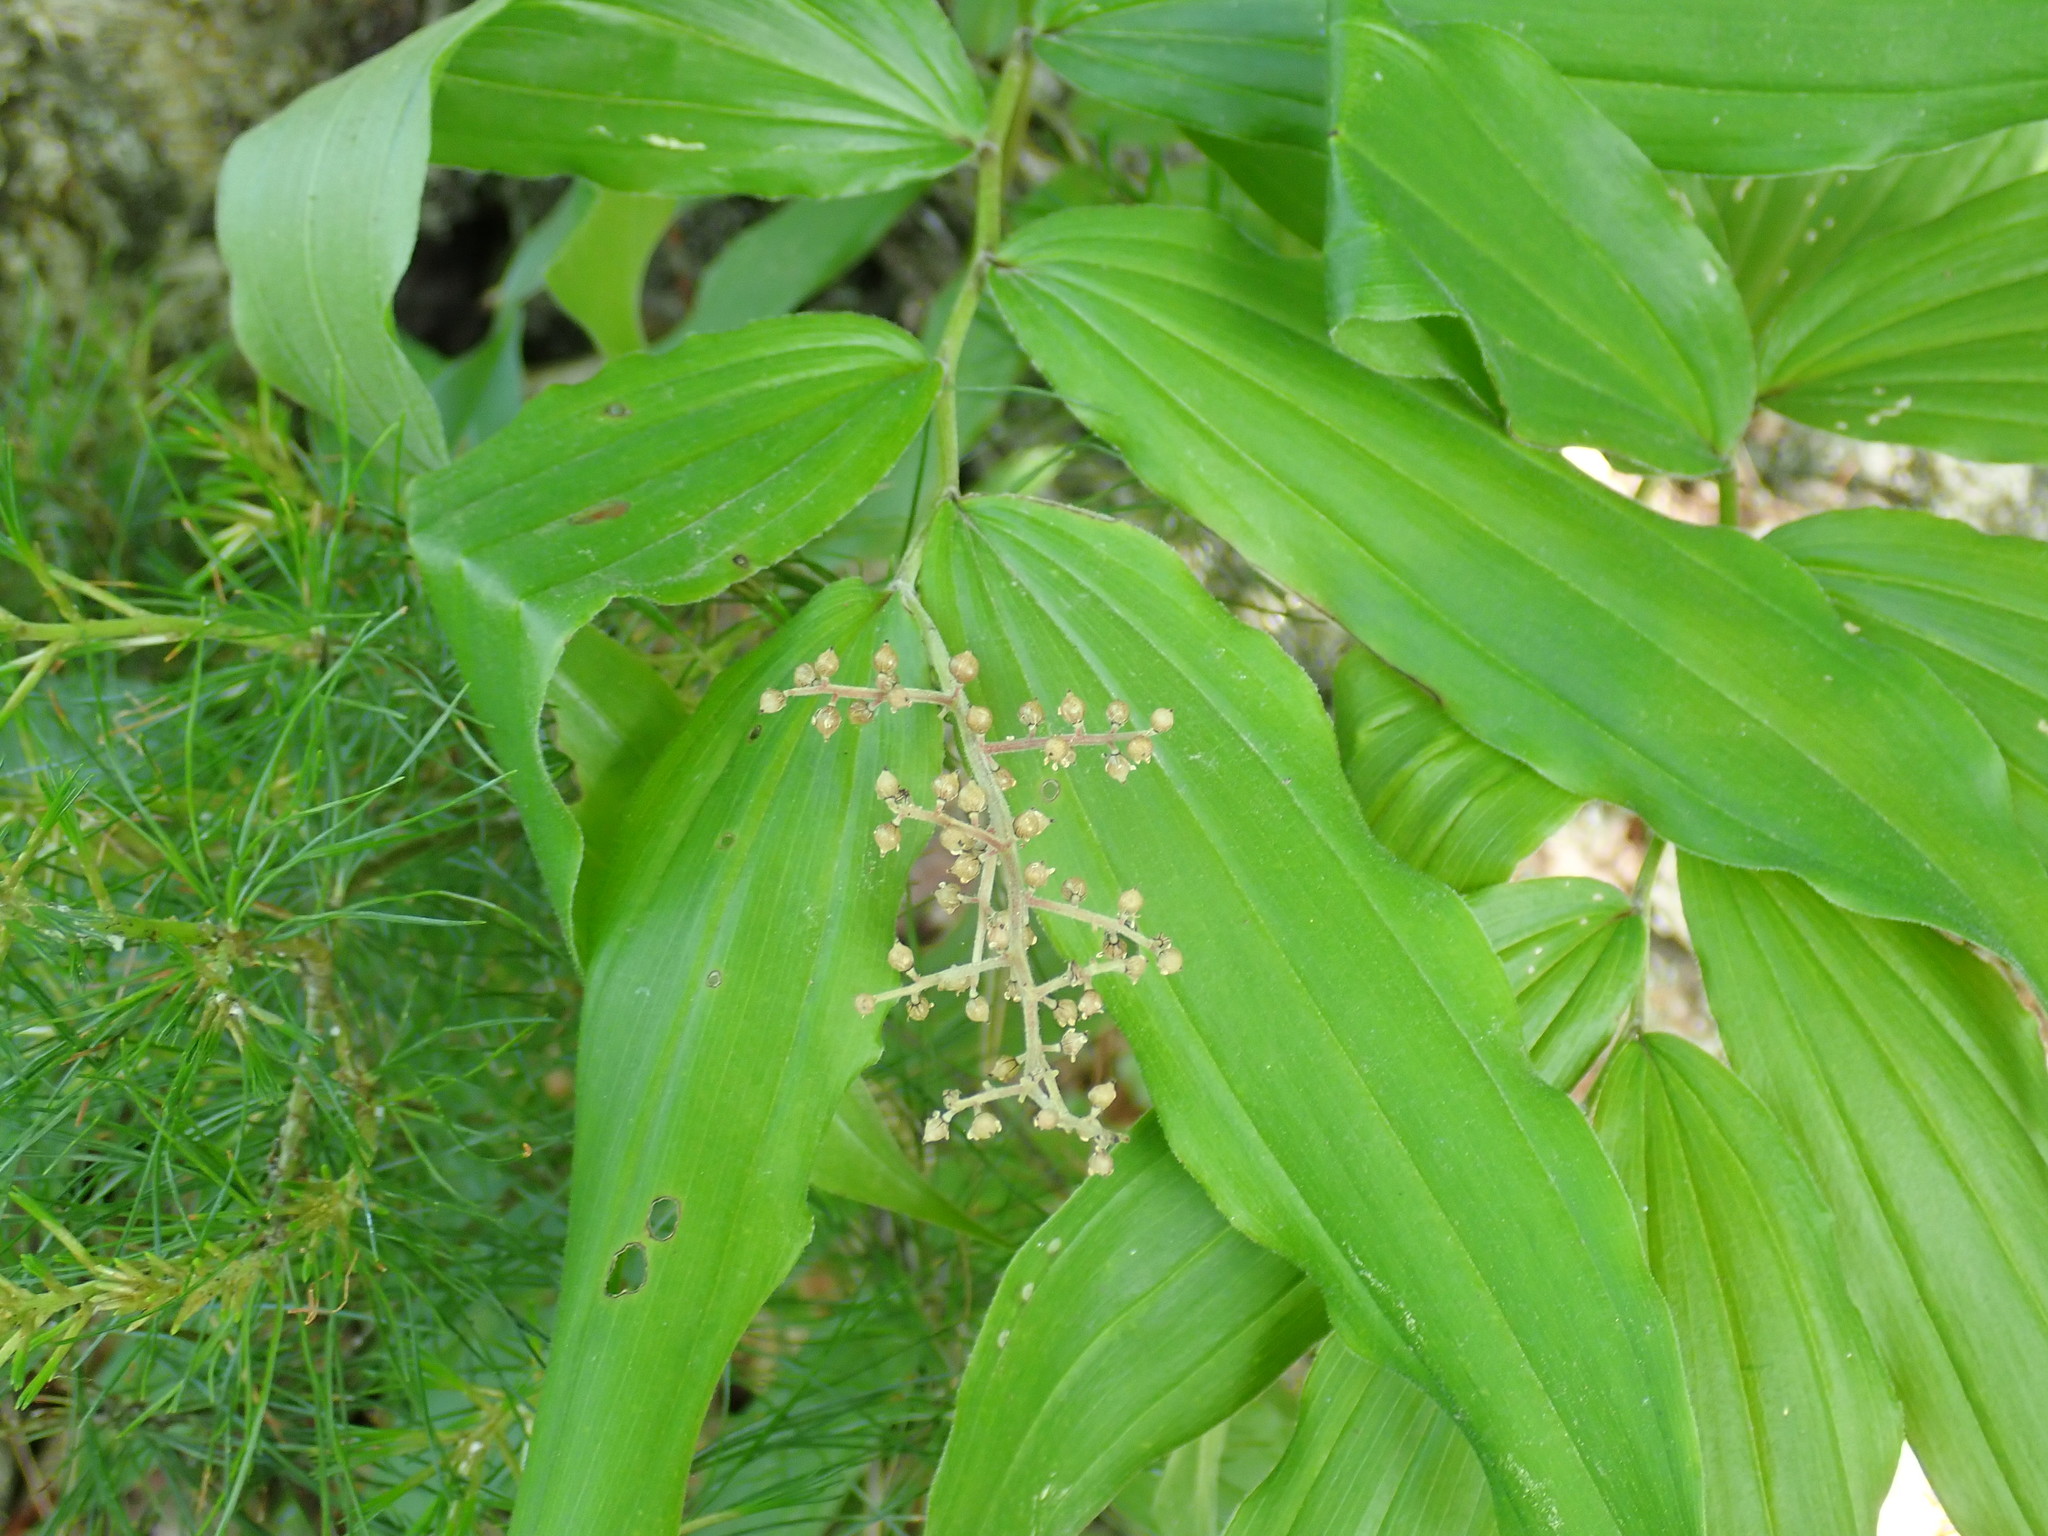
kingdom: Plantae
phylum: Tracheophyta
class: Liliopsida
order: Asparagales
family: Asparagaceae
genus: Maianthemum
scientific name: Maianthemum racemosum
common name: False spikenard
